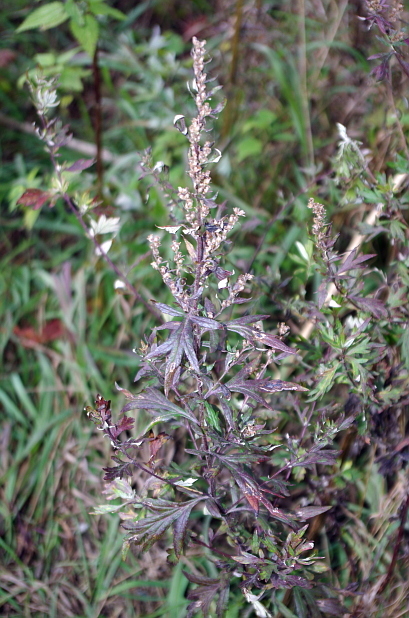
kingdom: Plantae
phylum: Tracheophyta
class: Magnoliopsida
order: Asterales
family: Asteraceae
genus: Artemisia
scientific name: Artemisia vulgaris
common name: Mugwort
